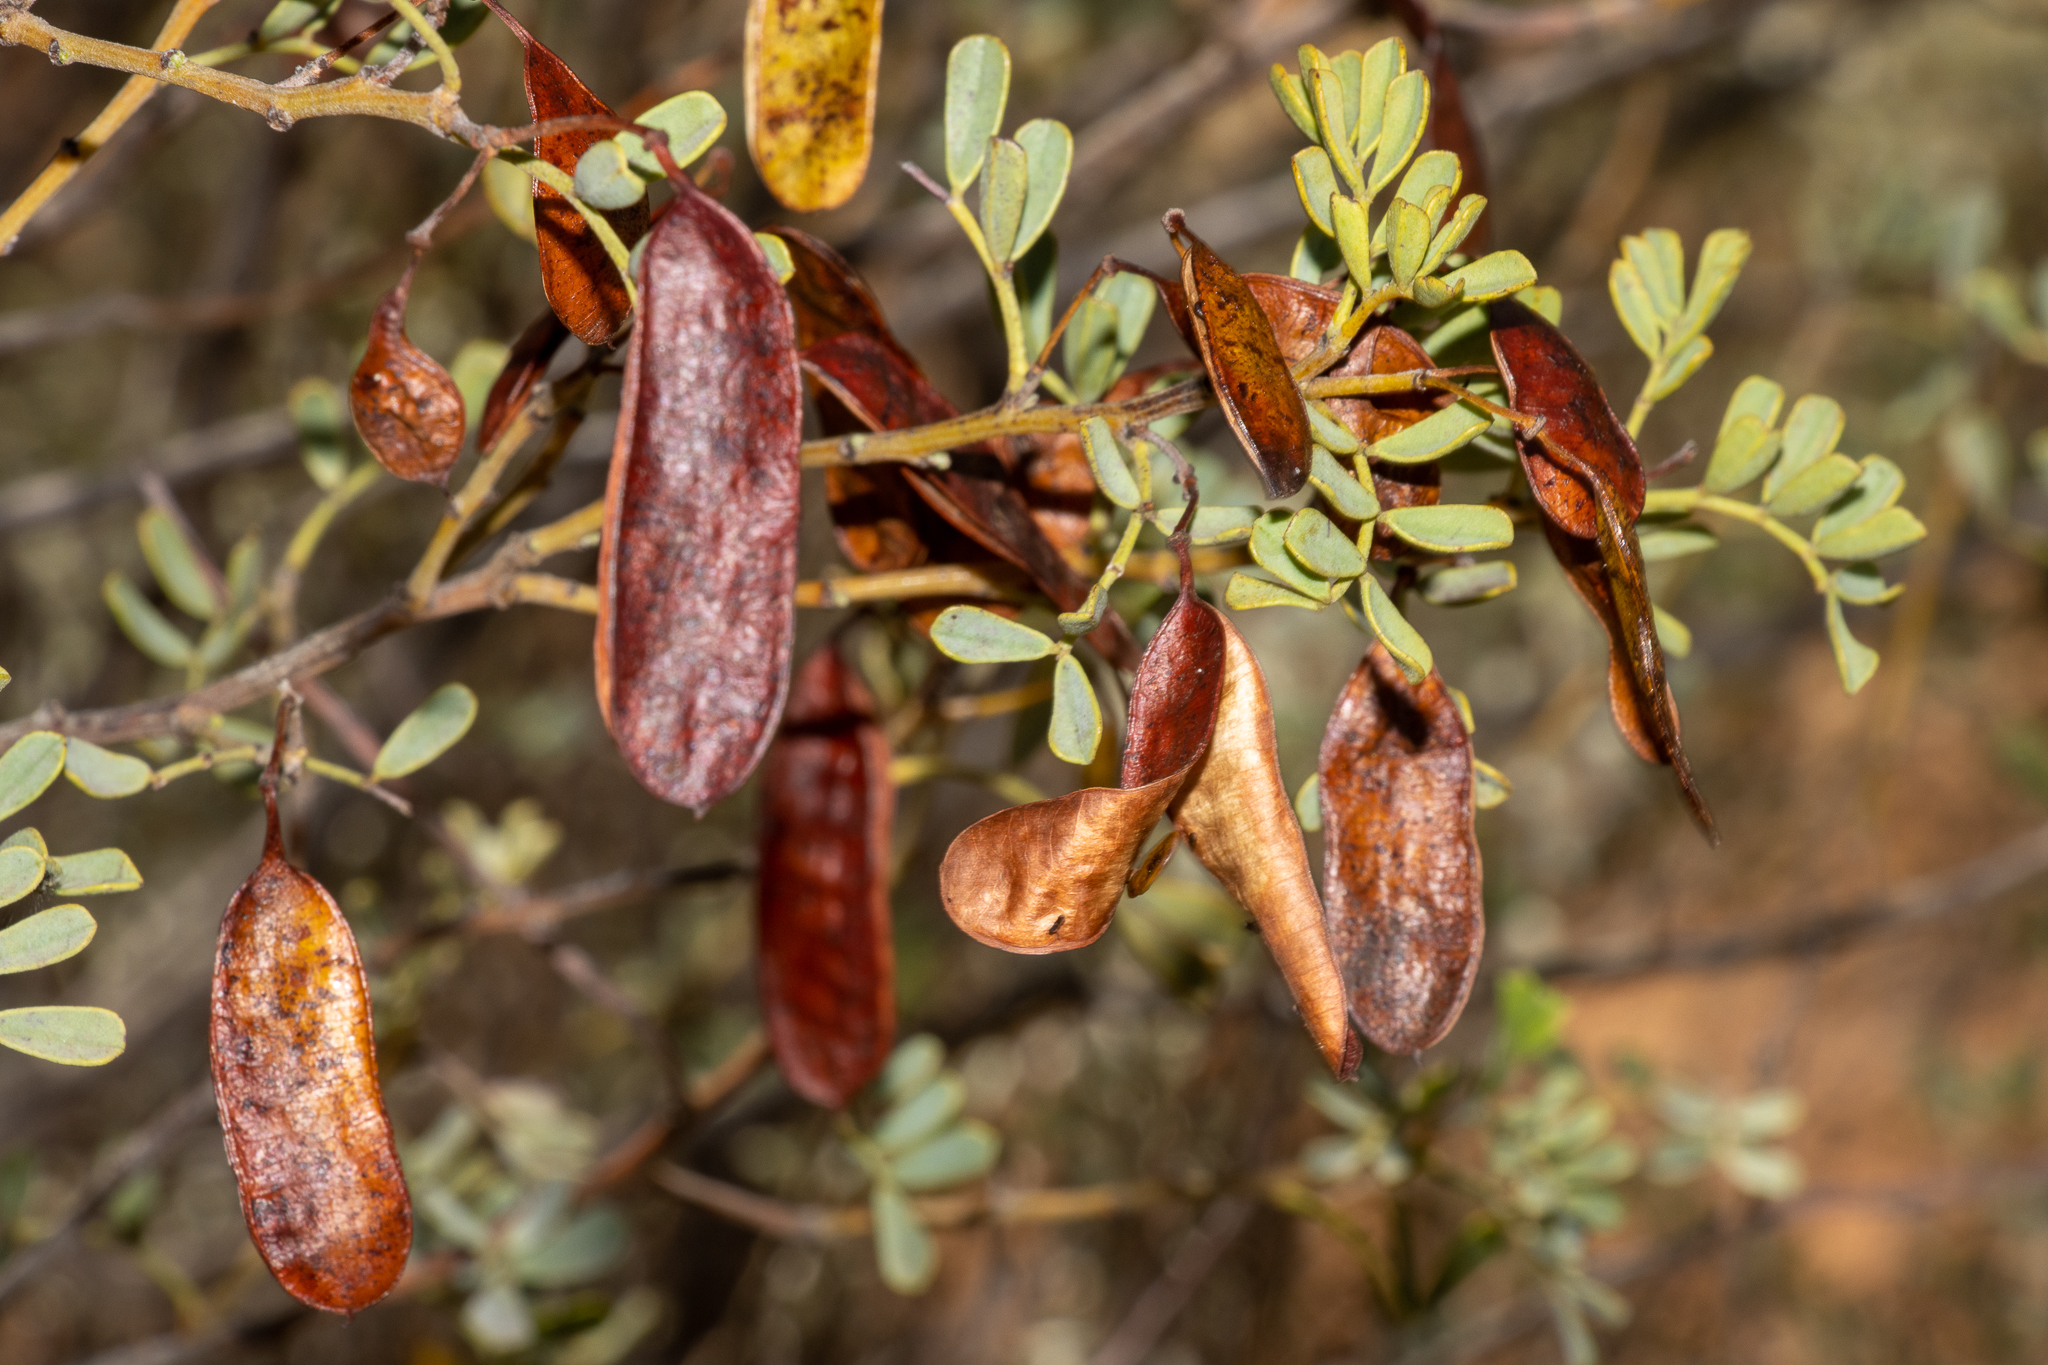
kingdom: Plantae
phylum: Tracheophyta
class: Magnoliopsida
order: Fabales
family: Fabaceae
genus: Senna
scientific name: Senna artemisioides
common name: Burnt-leaved acacia
